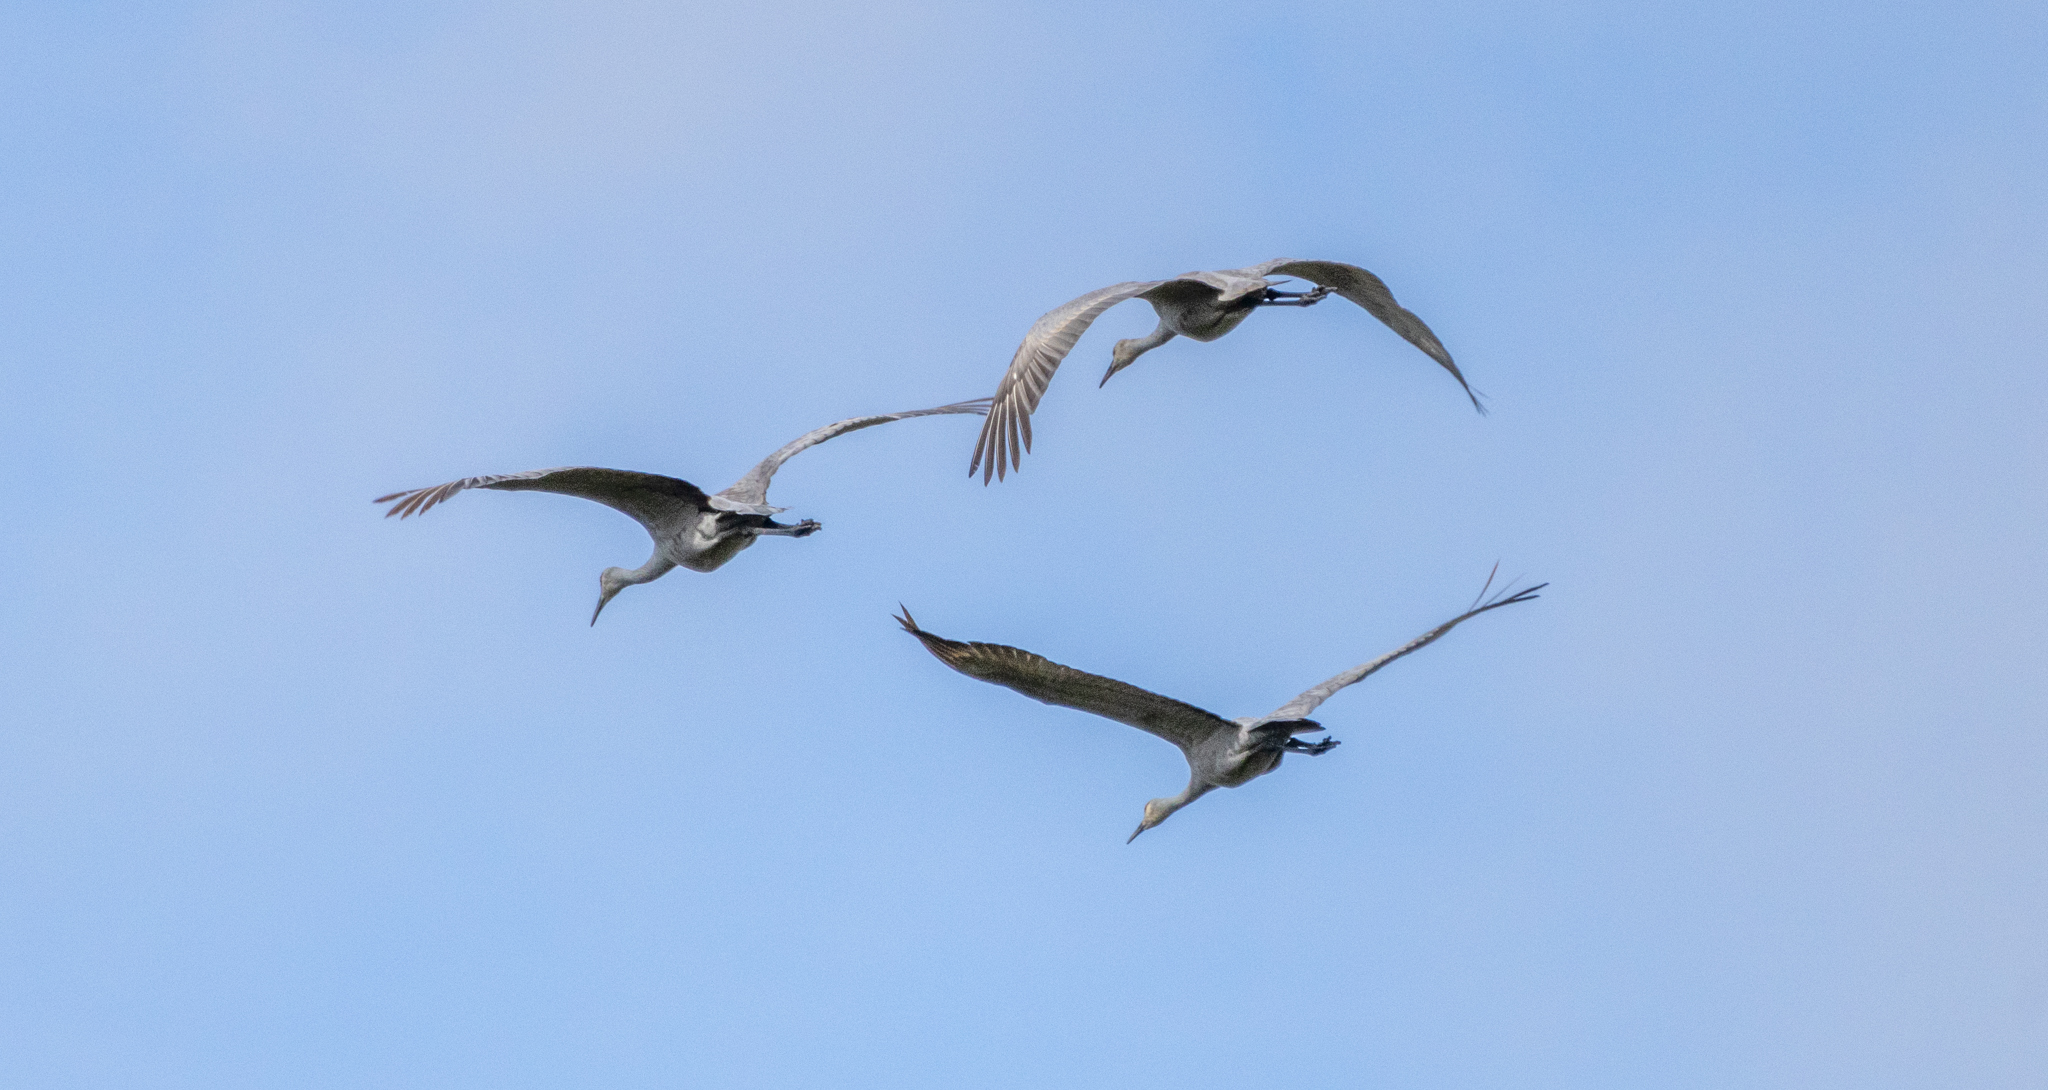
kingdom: Animalia
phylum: Chordata
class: Aves
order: Gruiformes
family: Gruidae
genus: Grus
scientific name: Grus canadensis
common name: Sandhill crane
